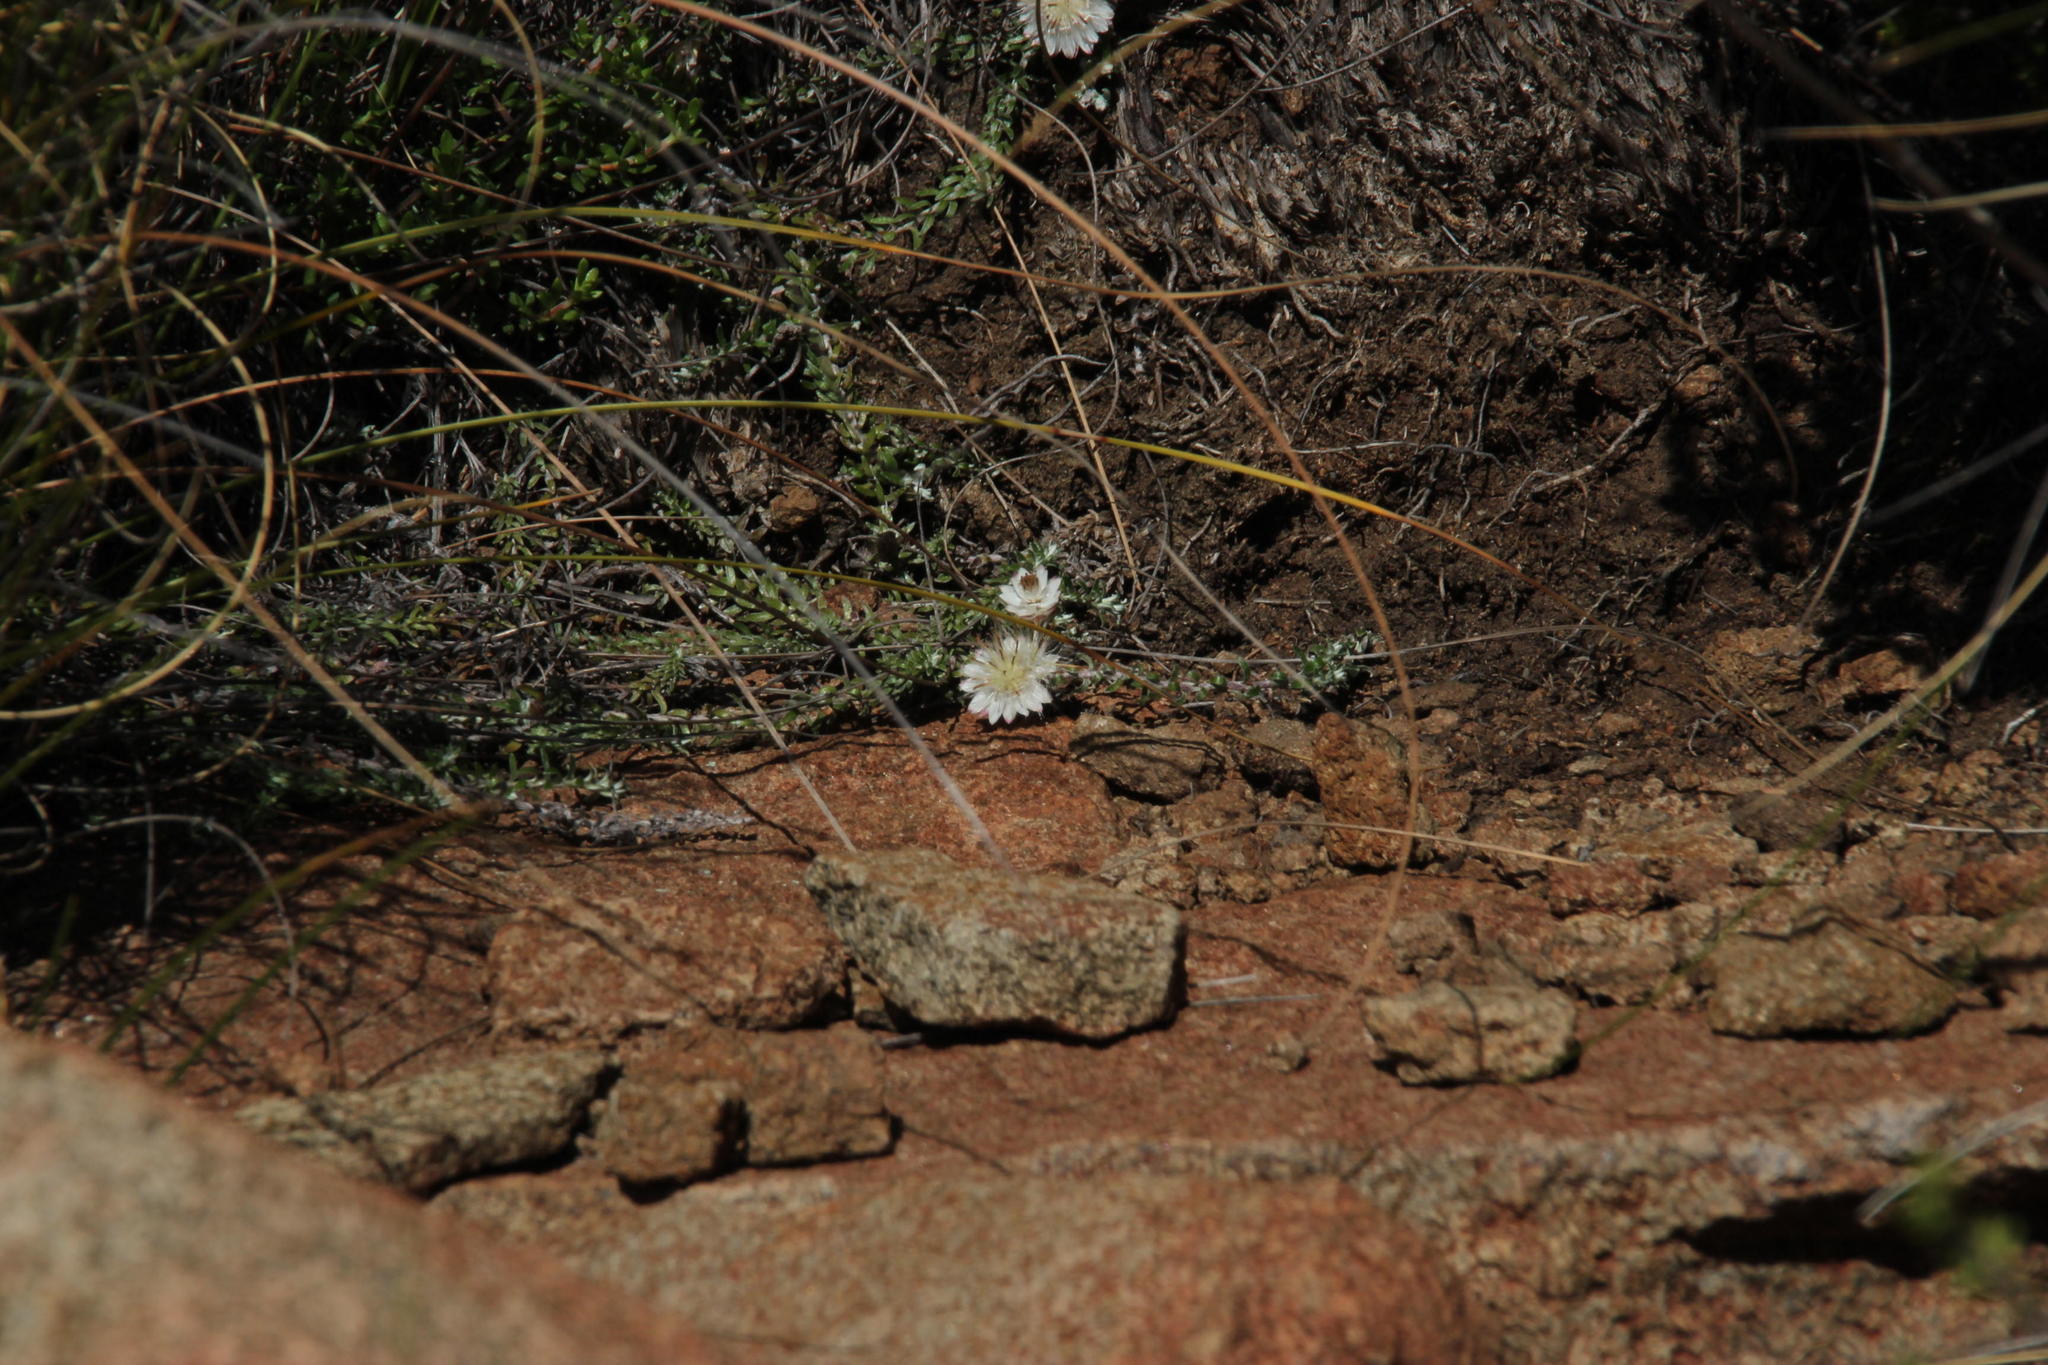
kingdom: Plantae
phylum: Tracheophyta
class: Magnoliopsida
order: Asterales
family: Asteraceae
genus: Helichrysum
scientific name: Helichrysum stoloniferum
